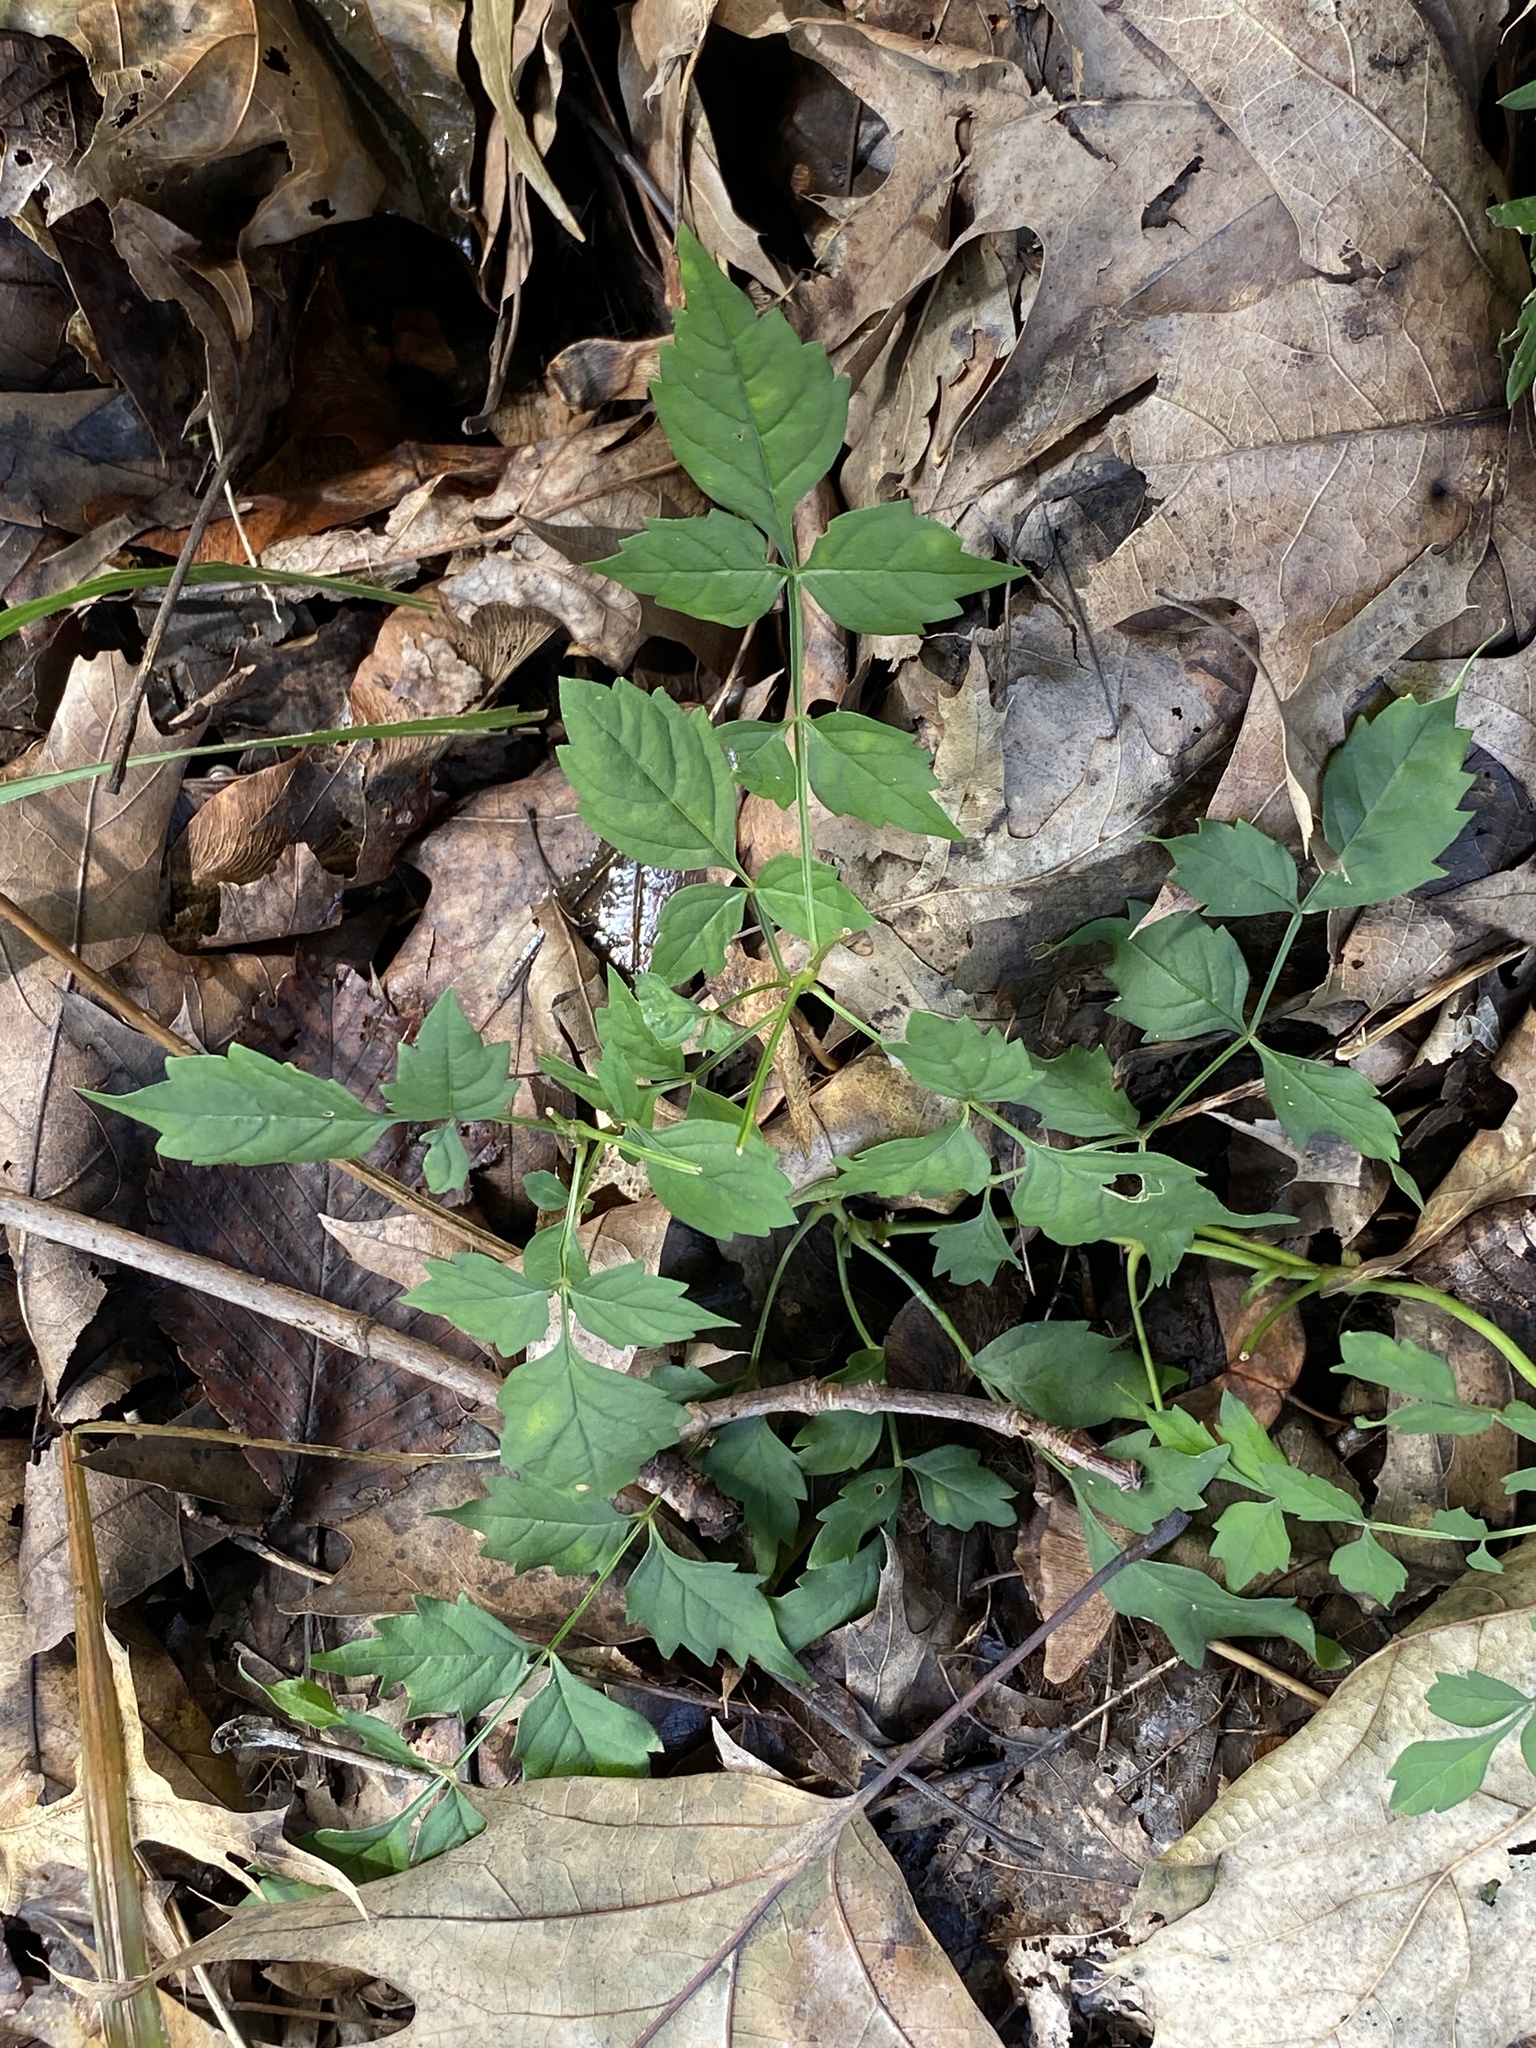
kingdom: Plantae
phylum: Tracheophyta
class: Magnoliopsida
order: Lamiales
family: Bignoniaceae
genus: Campsis
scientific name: Campsis radicans
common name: Trumpet-creeper
